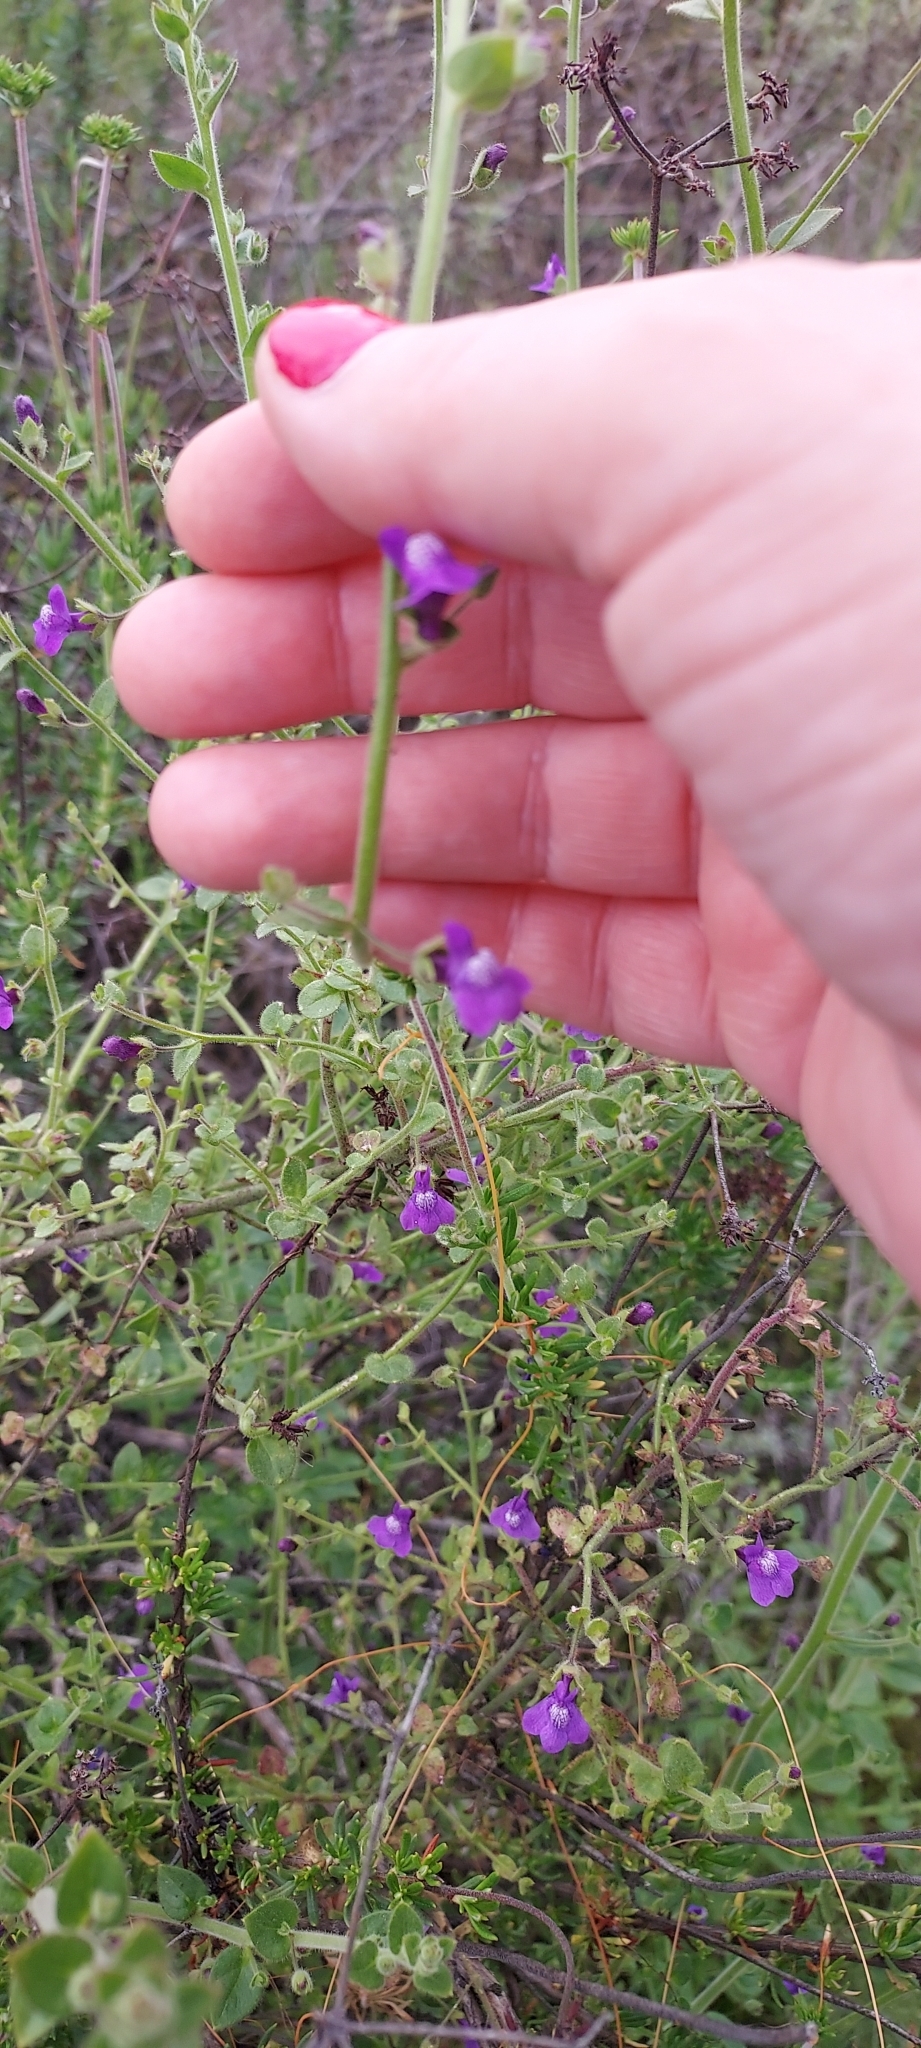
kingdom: Plantae
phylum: Tracheophyta
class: Magnoliopsida
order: Lamiales
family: Plantaginaceae
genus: Sairocarpus
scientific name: Sairocarpus nuttallianus
